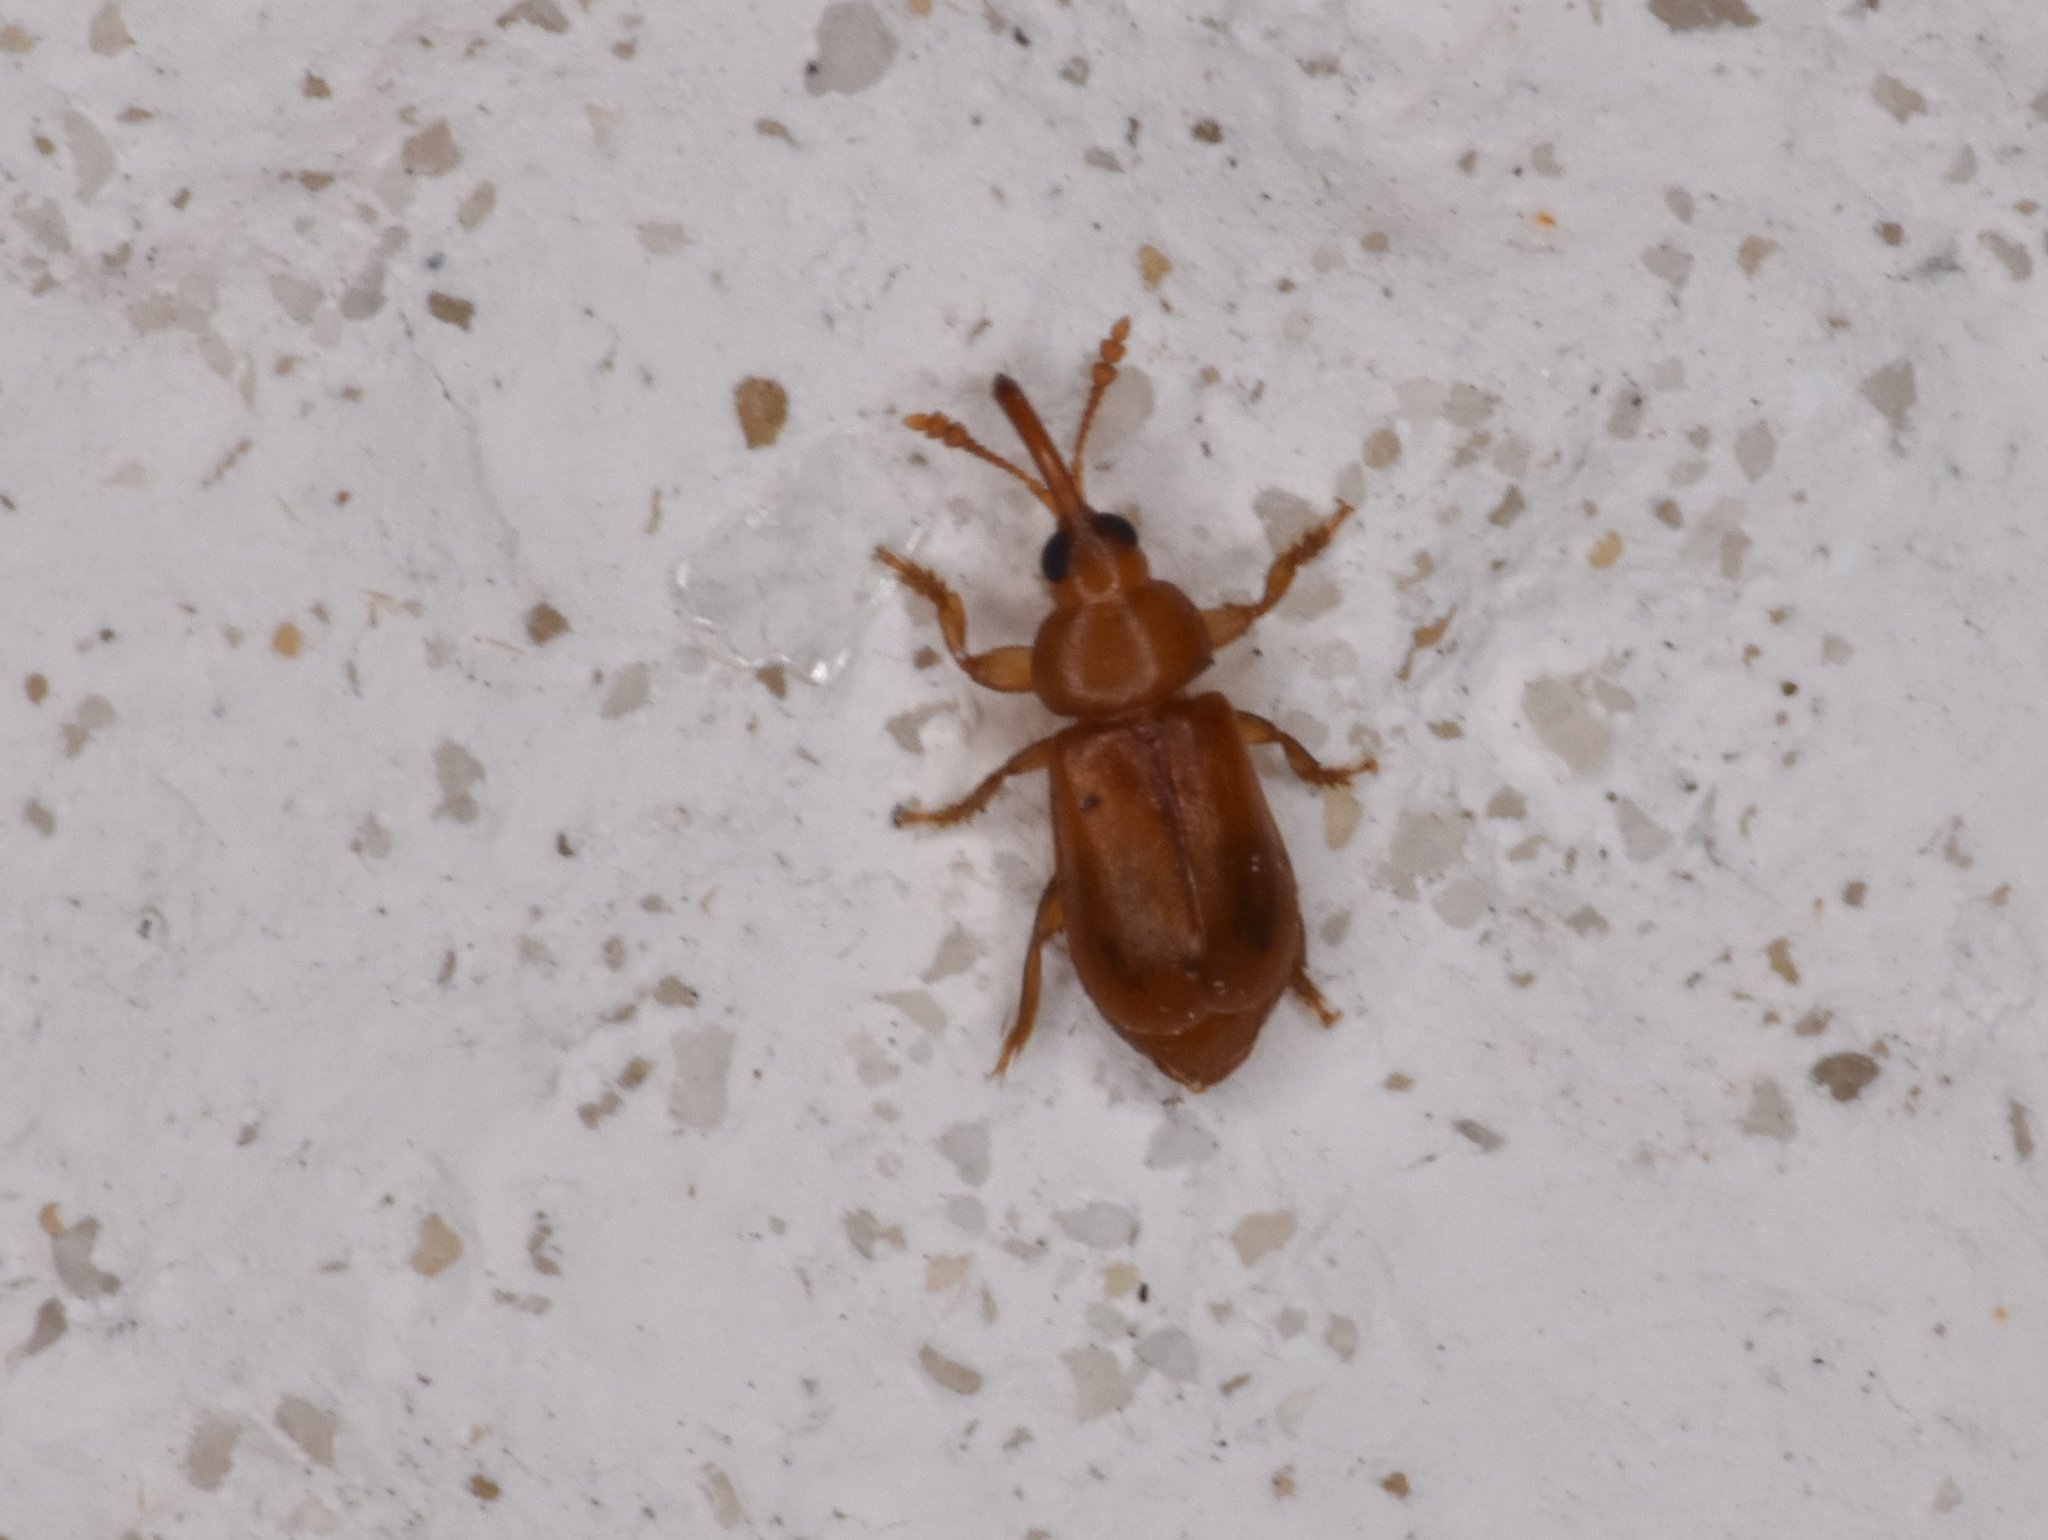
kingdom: Animalia
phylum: Arthropoda
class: Insecta
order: Coleoptera
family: Belidae
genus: Rhopalotria
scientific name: Rhopalotria furfuracea
